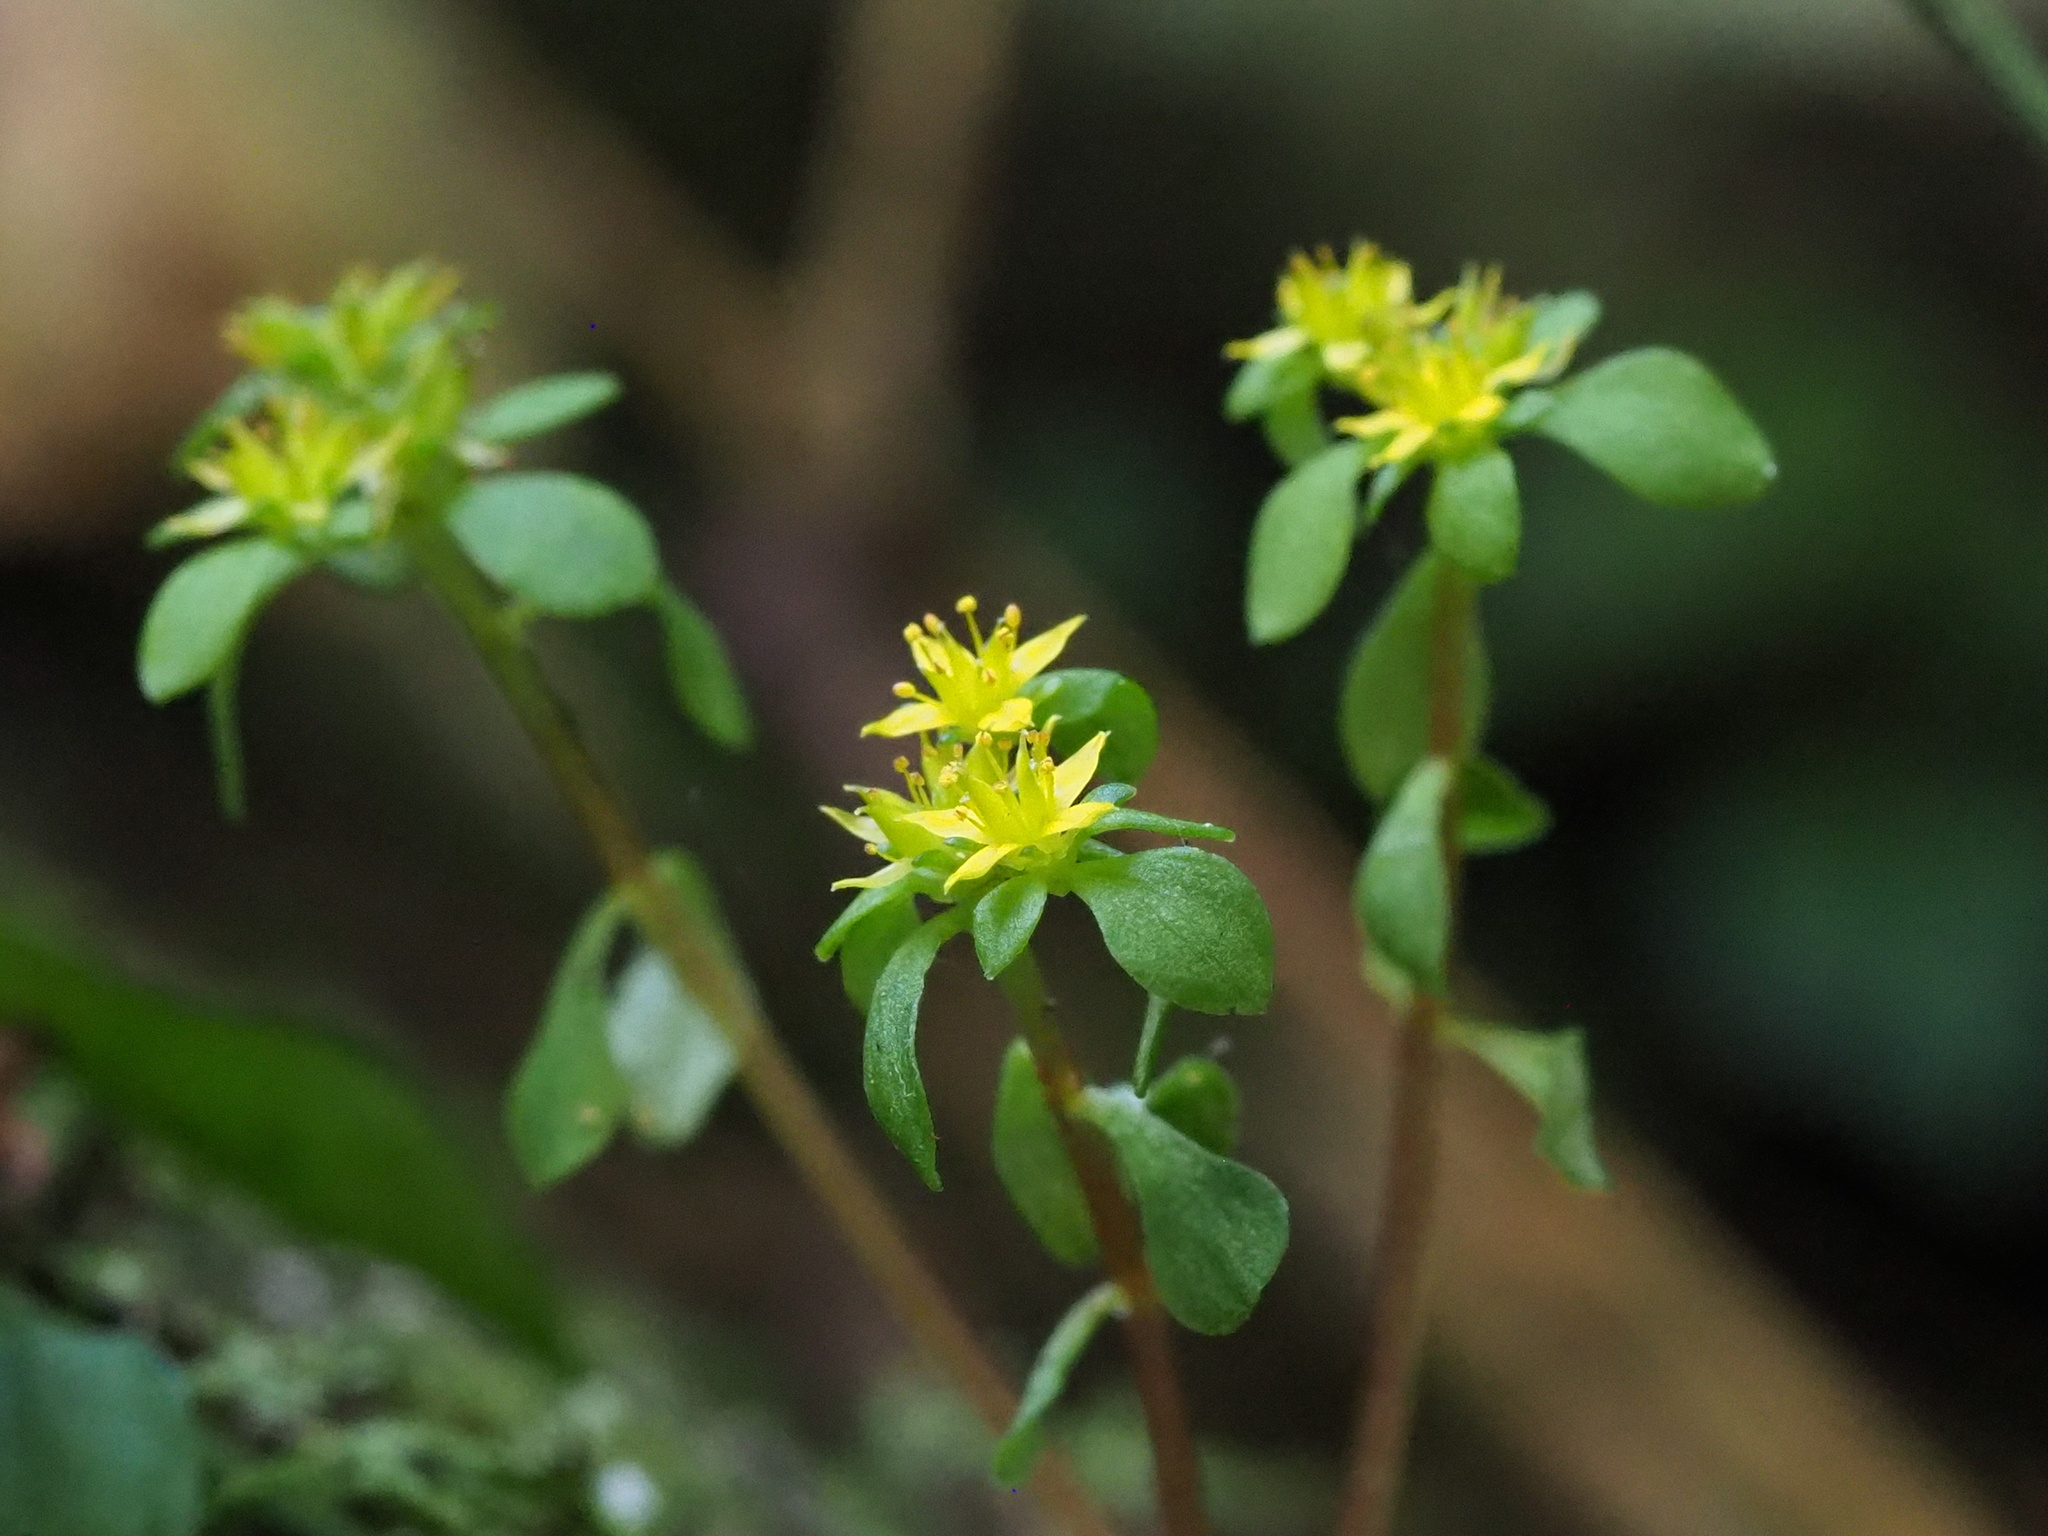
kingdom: Plantae
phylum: Tracheophyta
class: Magnoliopsida
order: Saxifragales
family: Crassulaceae
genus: Sedum
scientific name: Sedum actinocarpum
